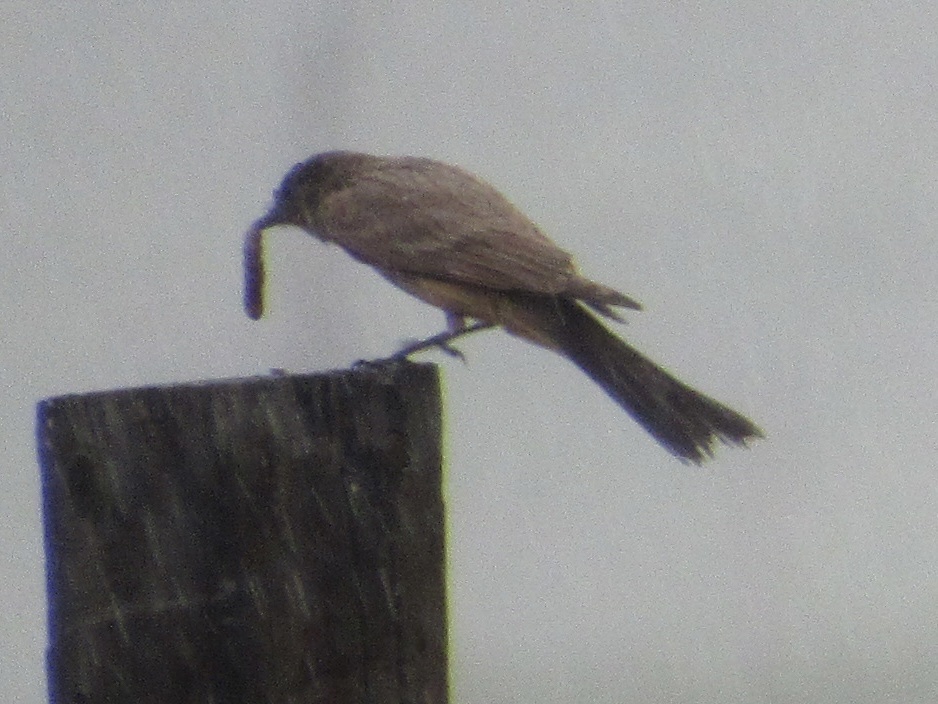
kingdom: Animalia
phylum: Chordata
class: Aves
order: Passeriformes
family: Tyrannidae
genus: Sayornis
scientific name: Sayornis saya
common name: Say's phoebe
